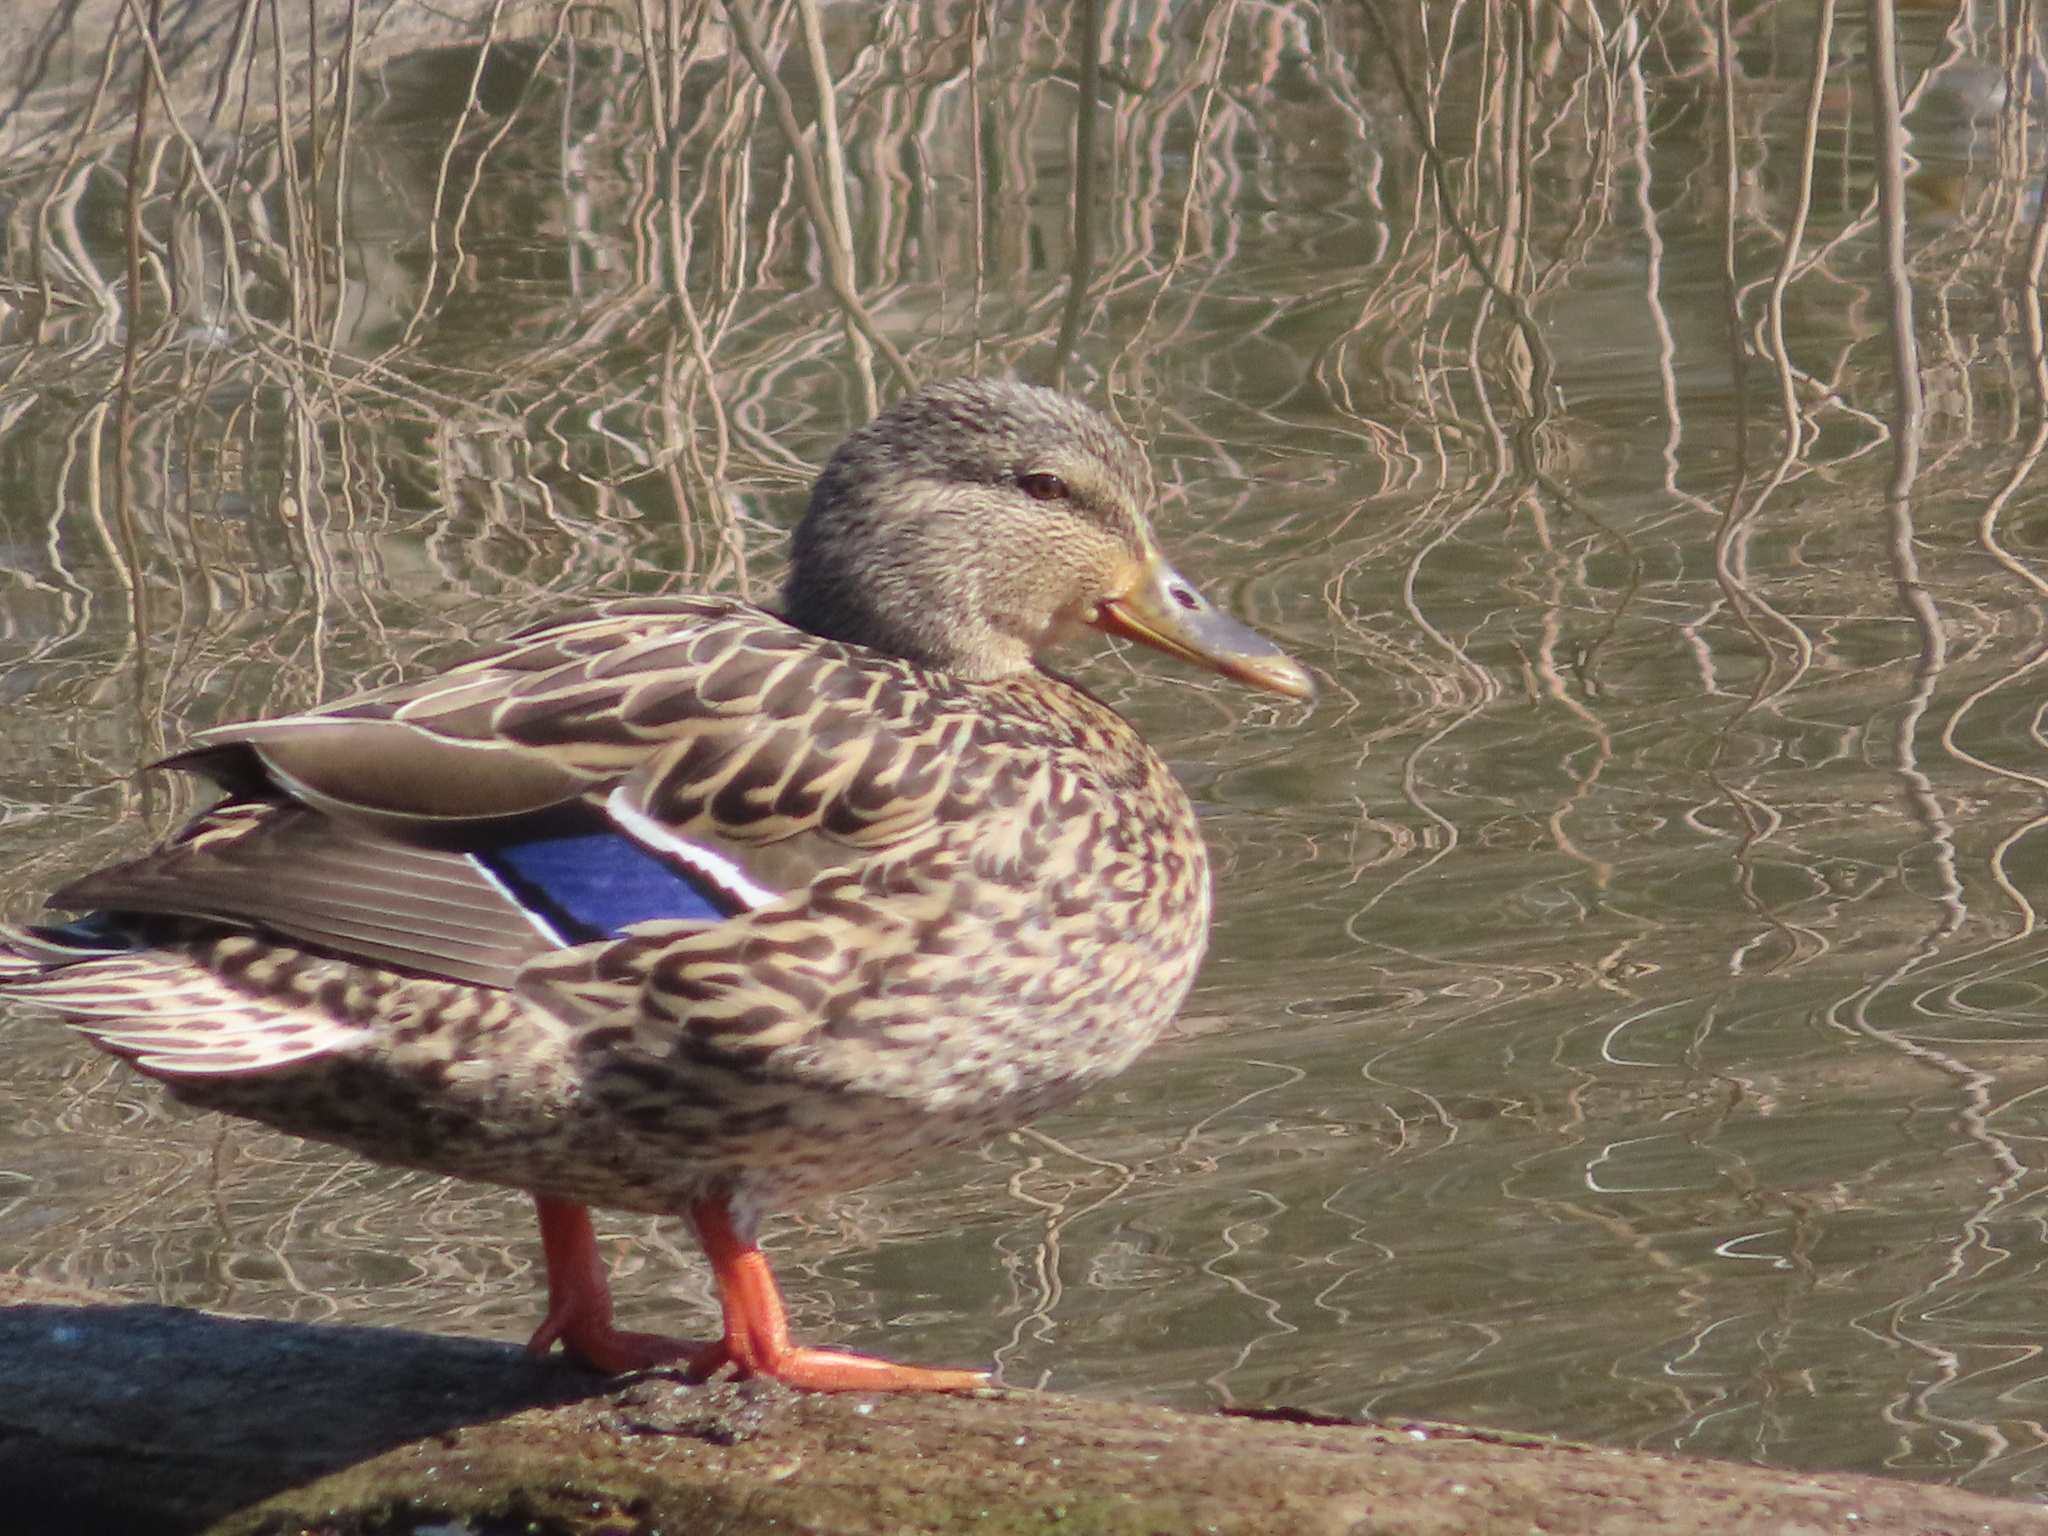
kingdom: Animalia
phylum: Chordata
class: Aves
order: Anseriformes
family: Anatidae
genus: Anas
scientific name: Anas platyrhynchos
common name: Mallard
